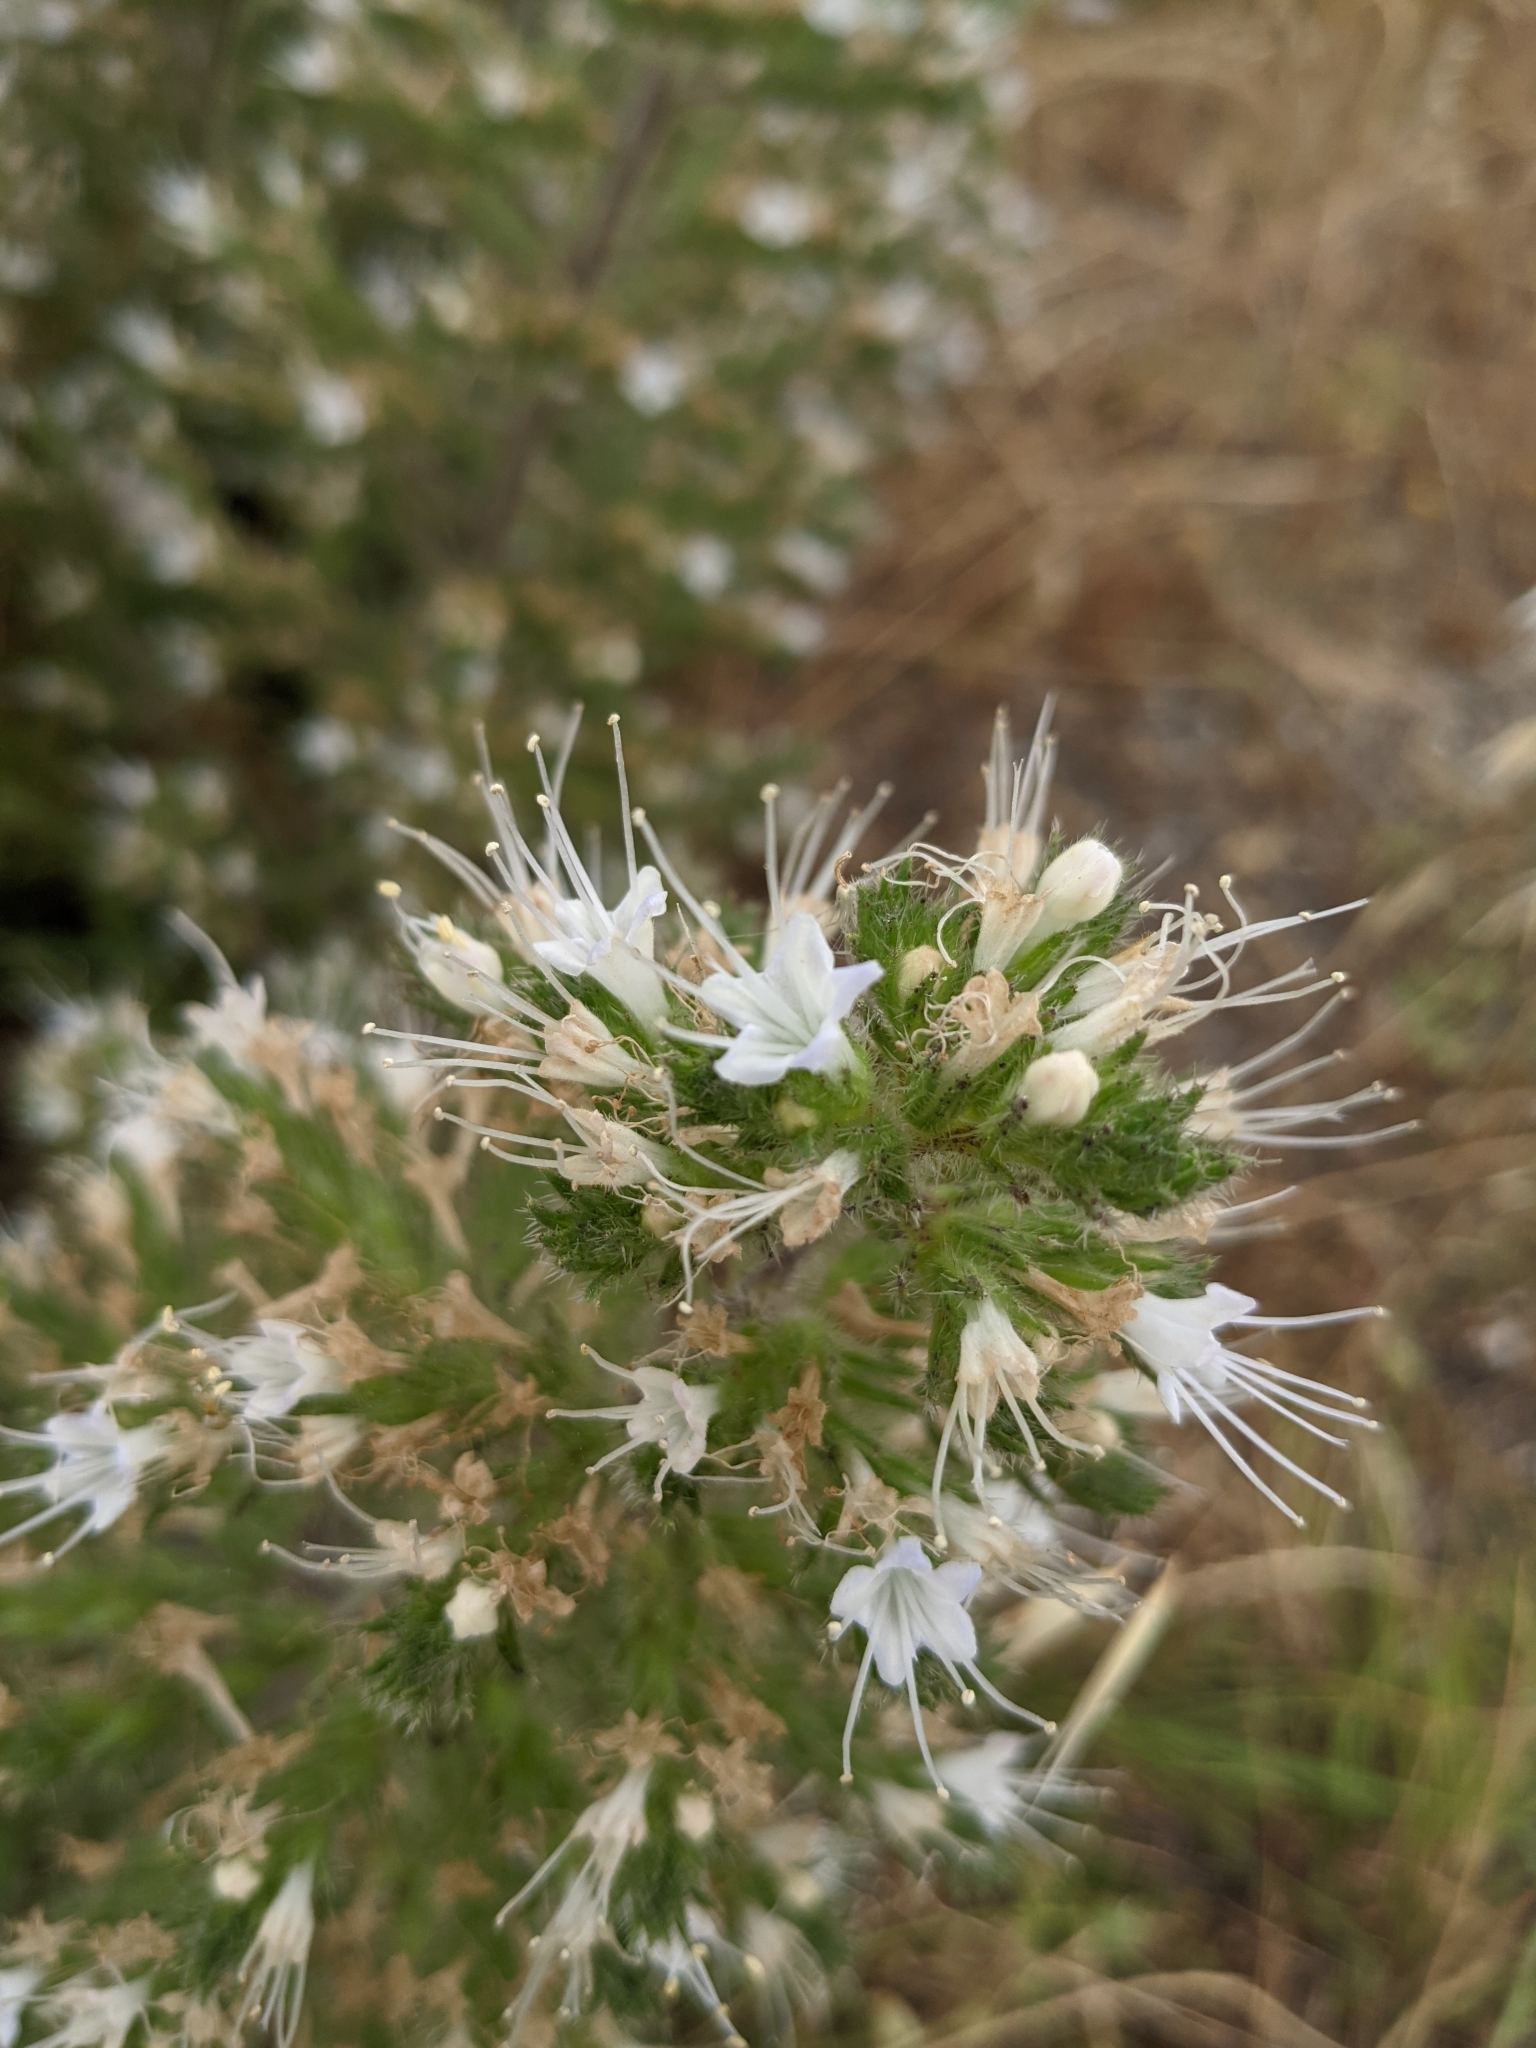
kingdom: Plantae
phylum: Tracheophyta
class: Magnoliopsida
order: Boraginales
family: Boraginaceae
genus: Echium
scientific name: Echium italicum
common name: Italian viper's bugloss
